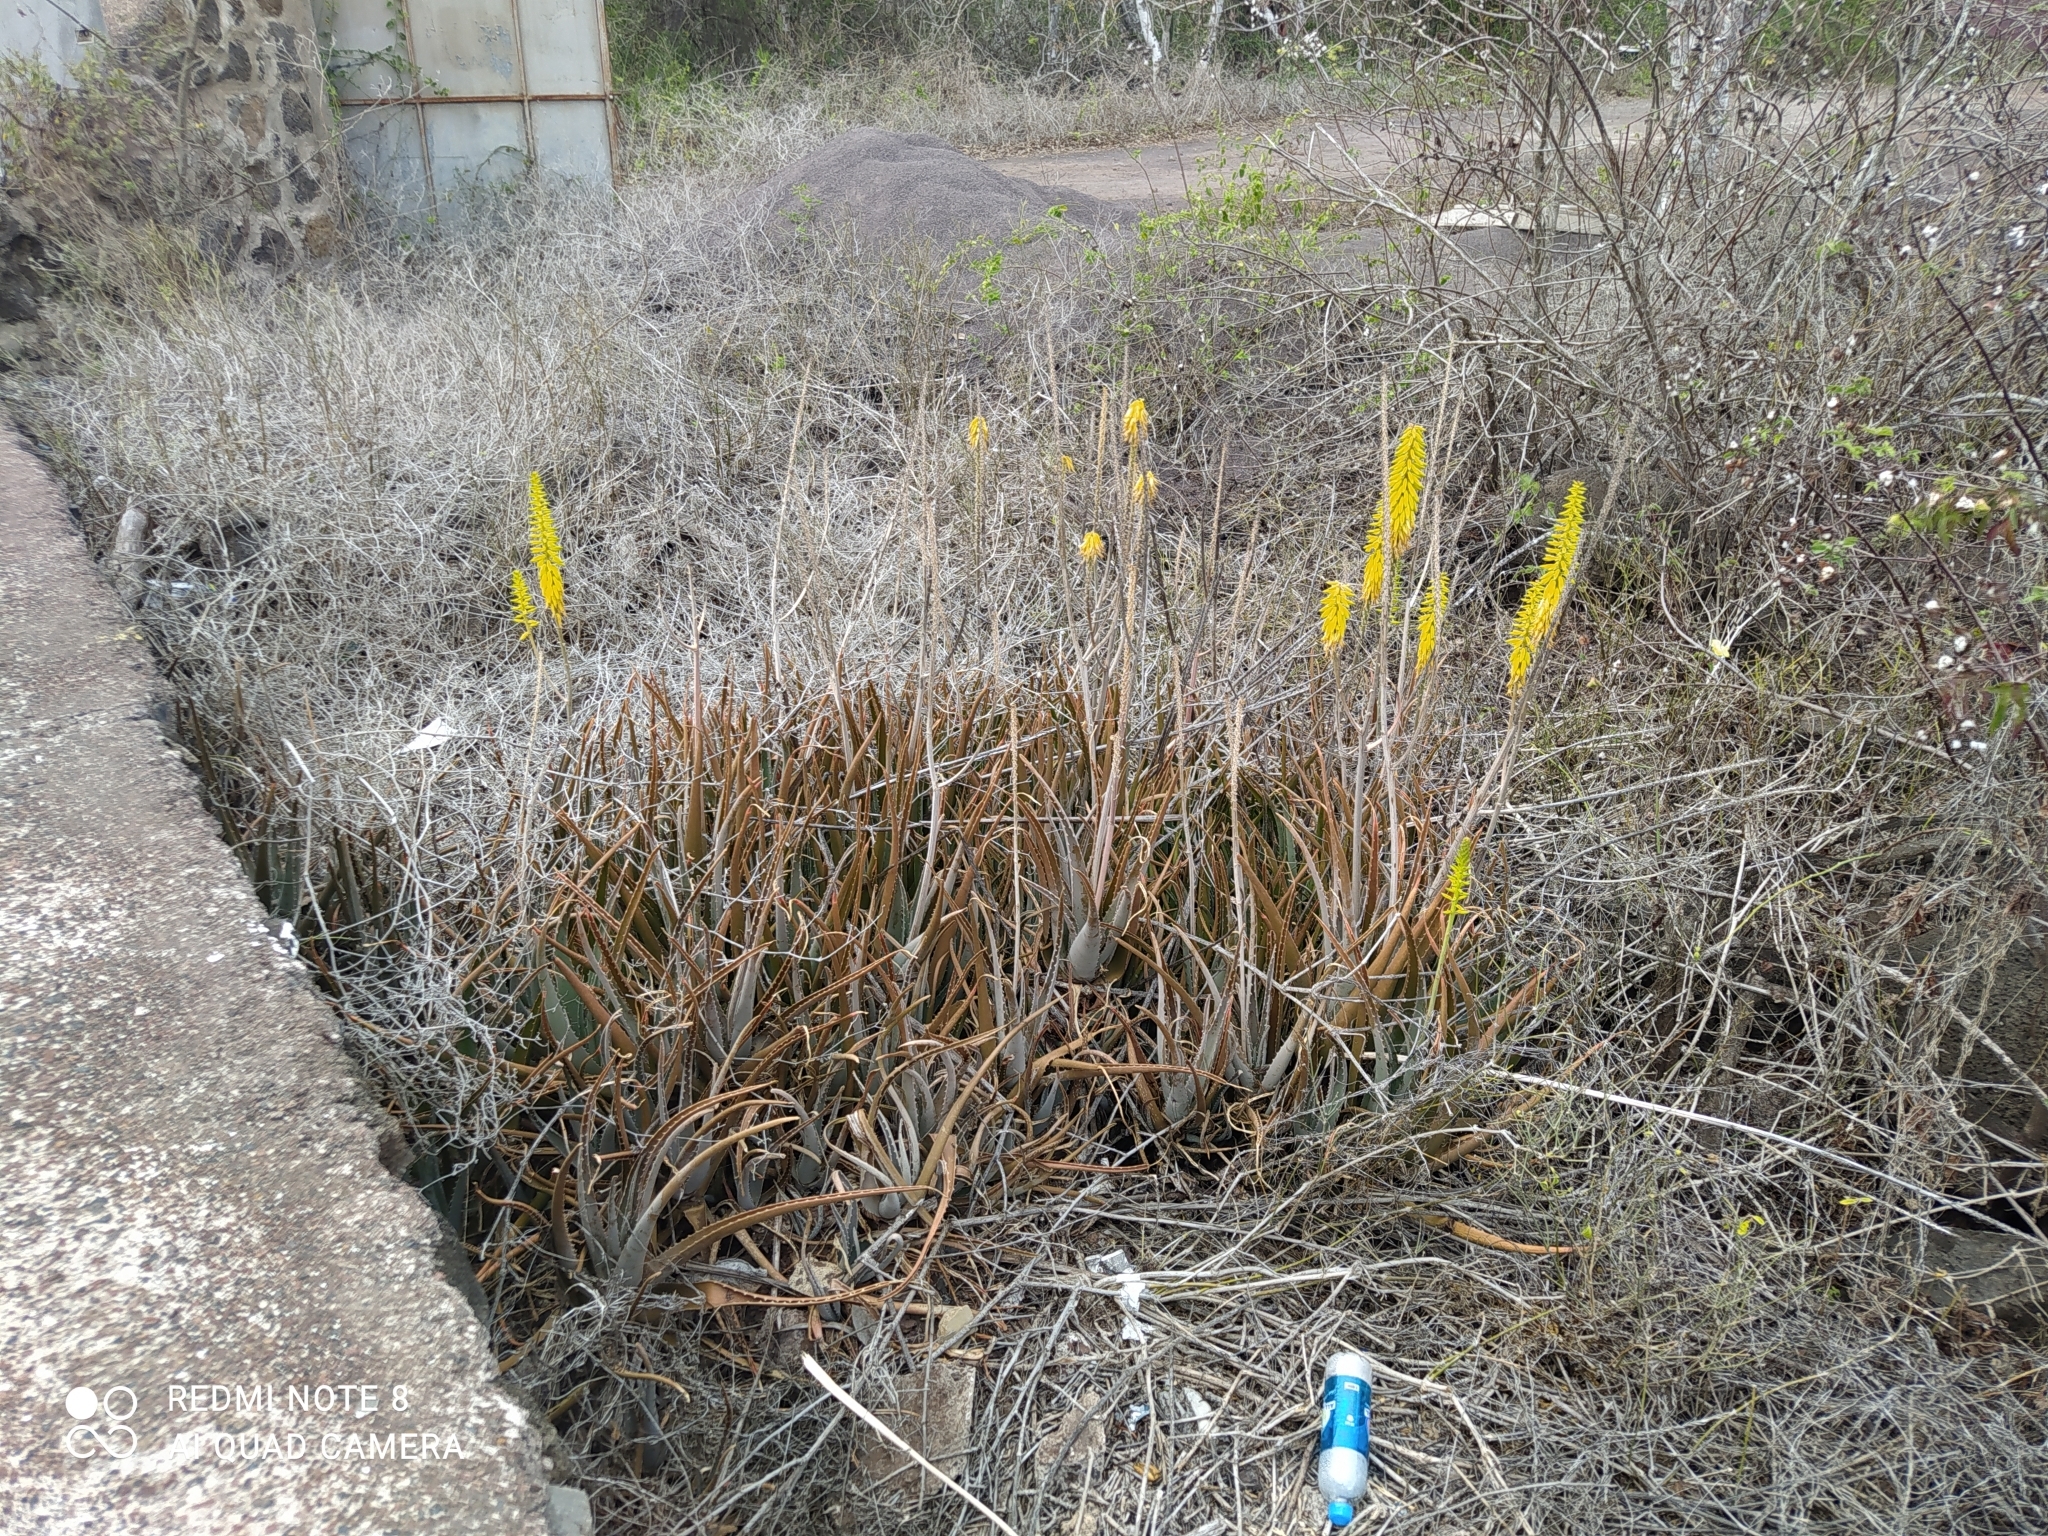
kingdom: Plantae
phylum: Tracheophyta
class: Liliopsida
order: Asparagales
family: Asphodelaceae
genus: Aloe
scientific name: Aloe vera
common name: Barbados aloe
